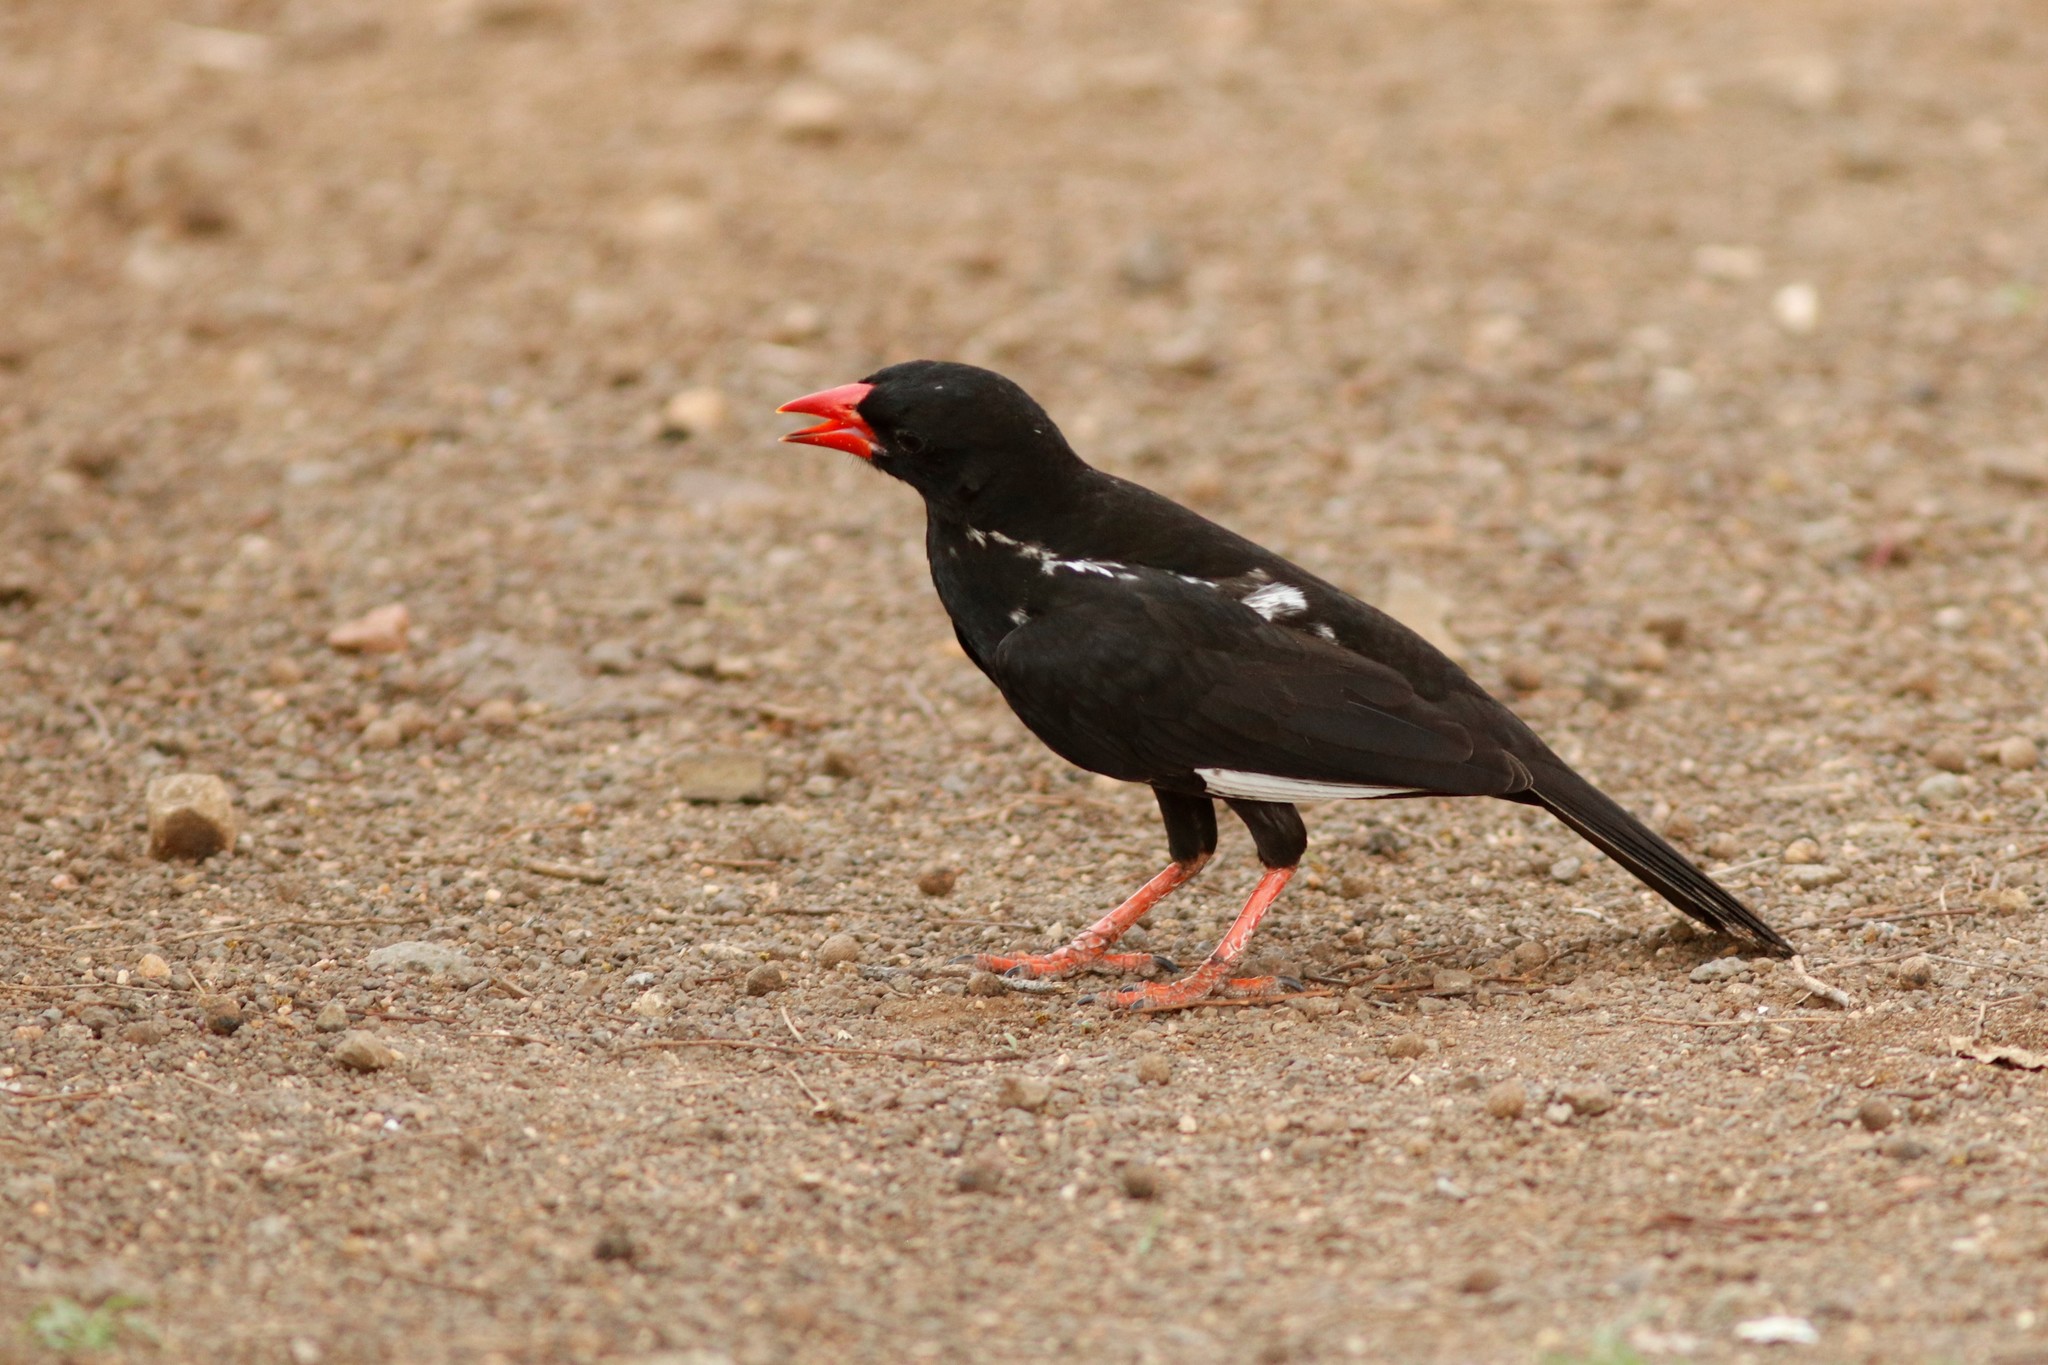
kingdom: Animalia
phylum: Chordata
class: Aves
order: Passeriformes
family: Ploceidae
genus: Bubalornis
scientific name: Bubalornis niger
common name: Red-billed buffalo weaver
